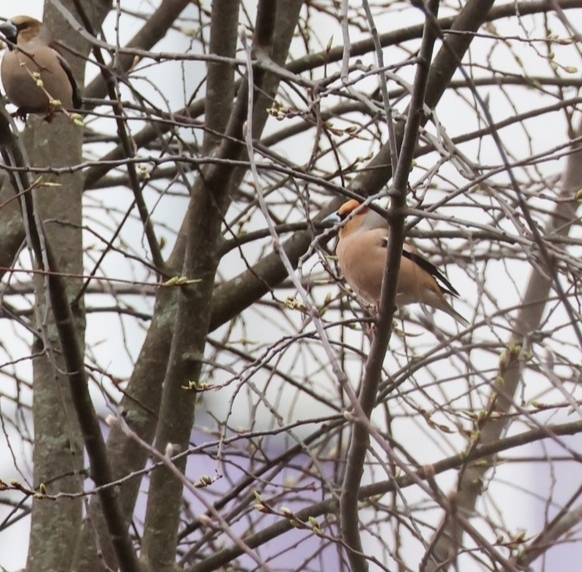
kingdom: Animalia
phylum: Chordata
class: Aves
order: Passeriformes
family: Fringillidae
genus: Coccothraustes
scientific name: Coccothraustes coccothraustes
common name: Hawfinch
